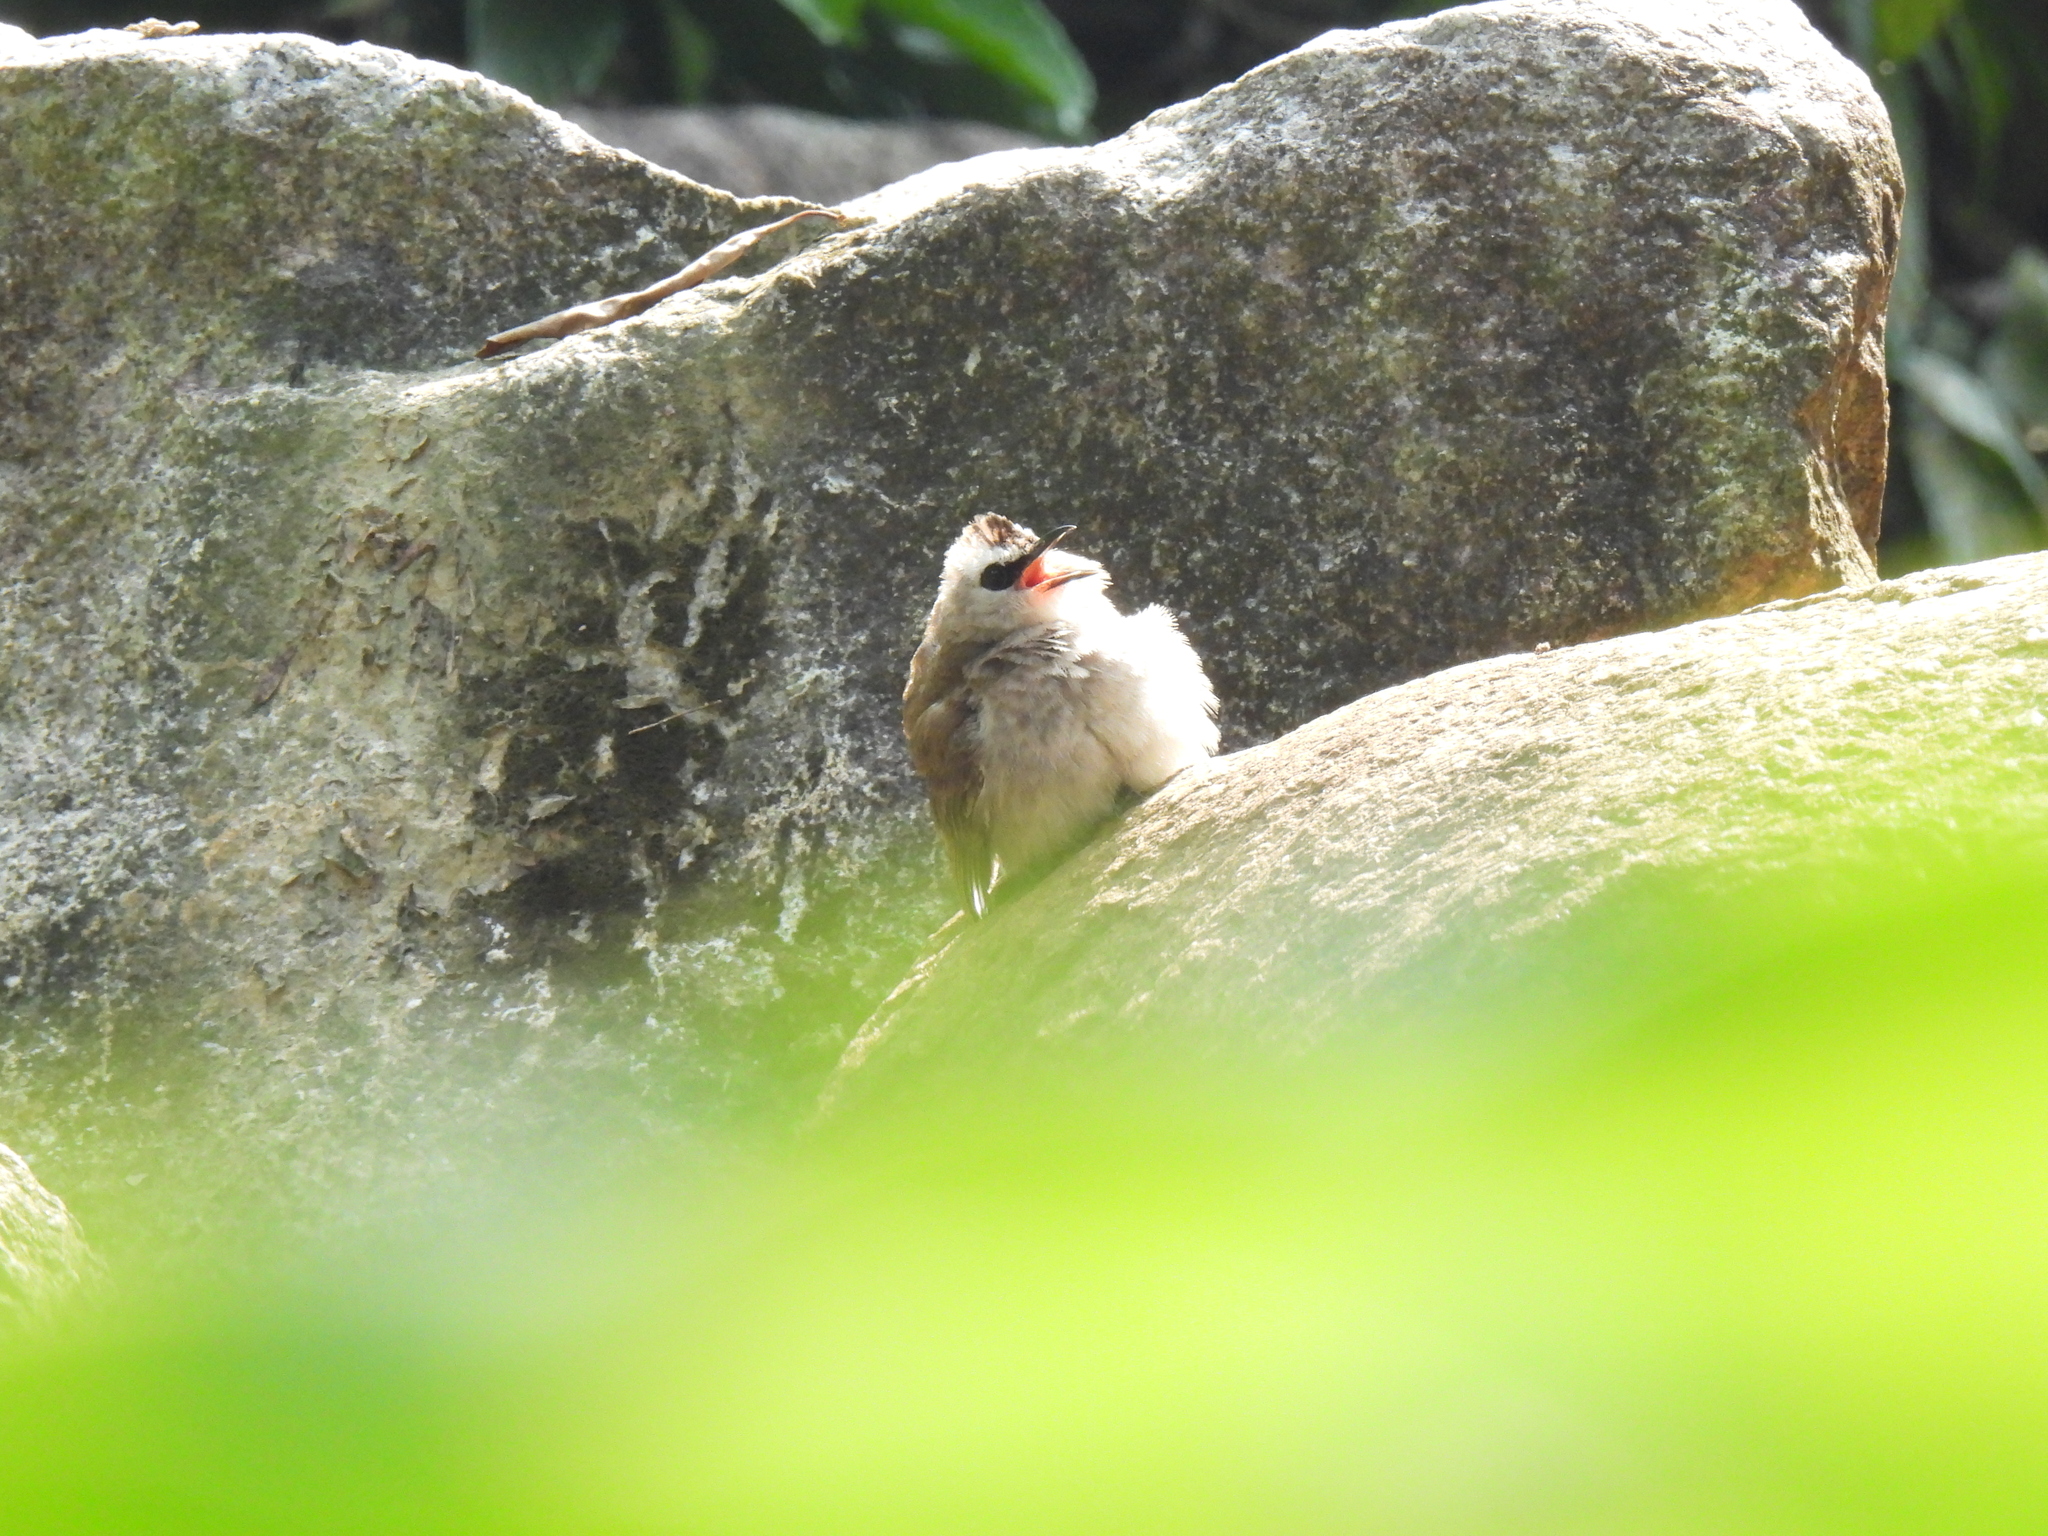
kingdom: Animalia
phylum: Chordata
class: Aves
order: Passeriformes
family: Pycnonotidae
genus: Pycnonotus
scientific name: Pycnonotus goiavier
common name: Yellow-vented bulbul
